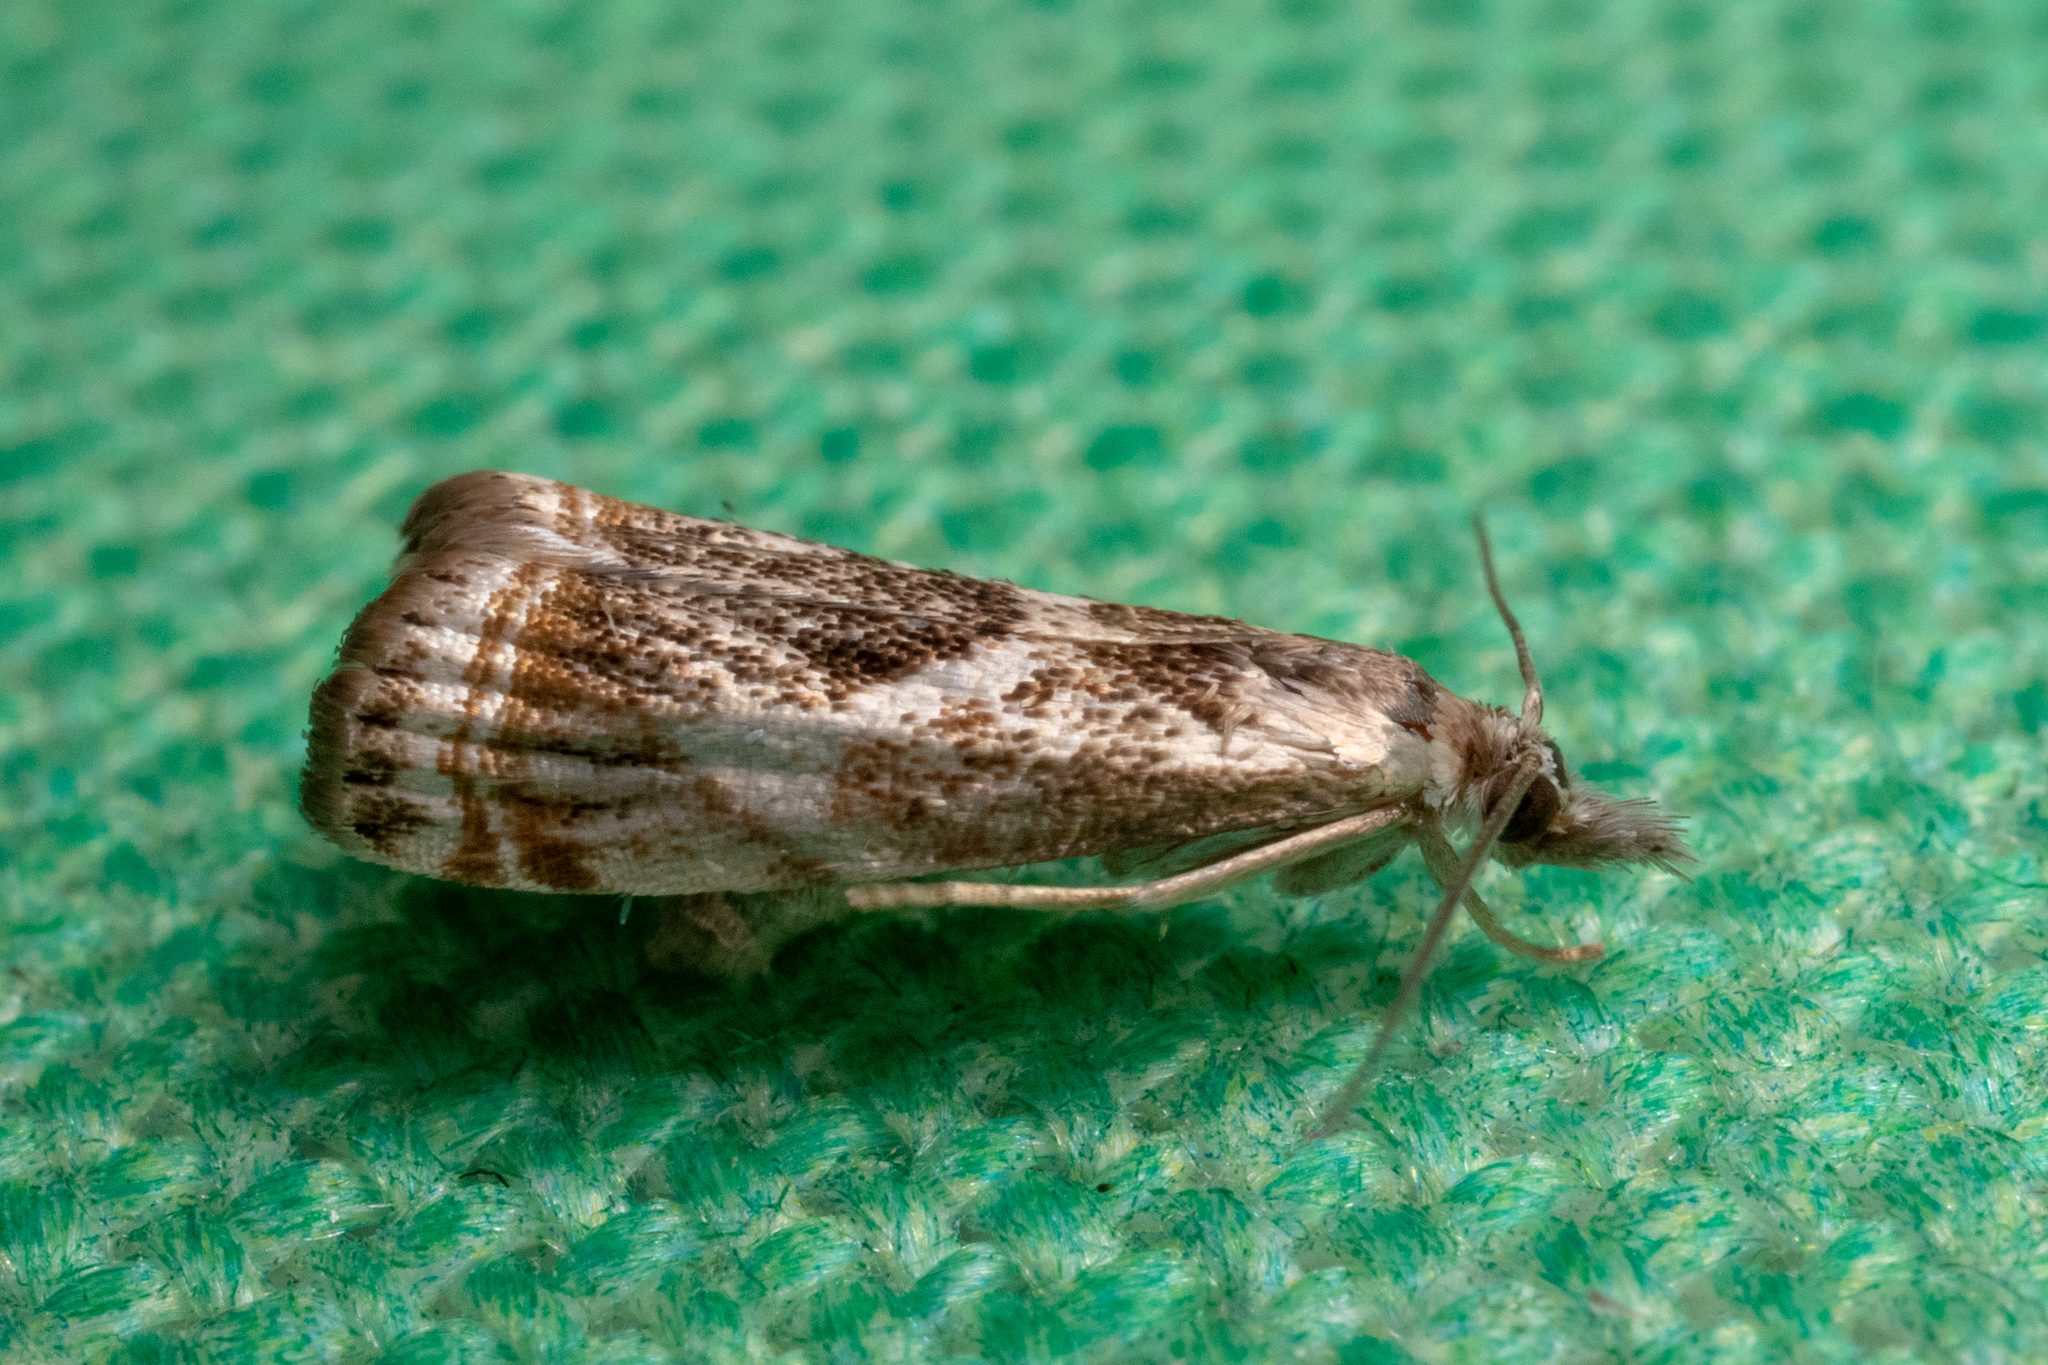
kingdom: Animalia
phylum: Arthropoda
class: Insecta
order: Lepidoptera
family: Crambidae
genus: Microcrambus
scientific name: Microcrambus elegans
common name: Elegant grass-veneer
